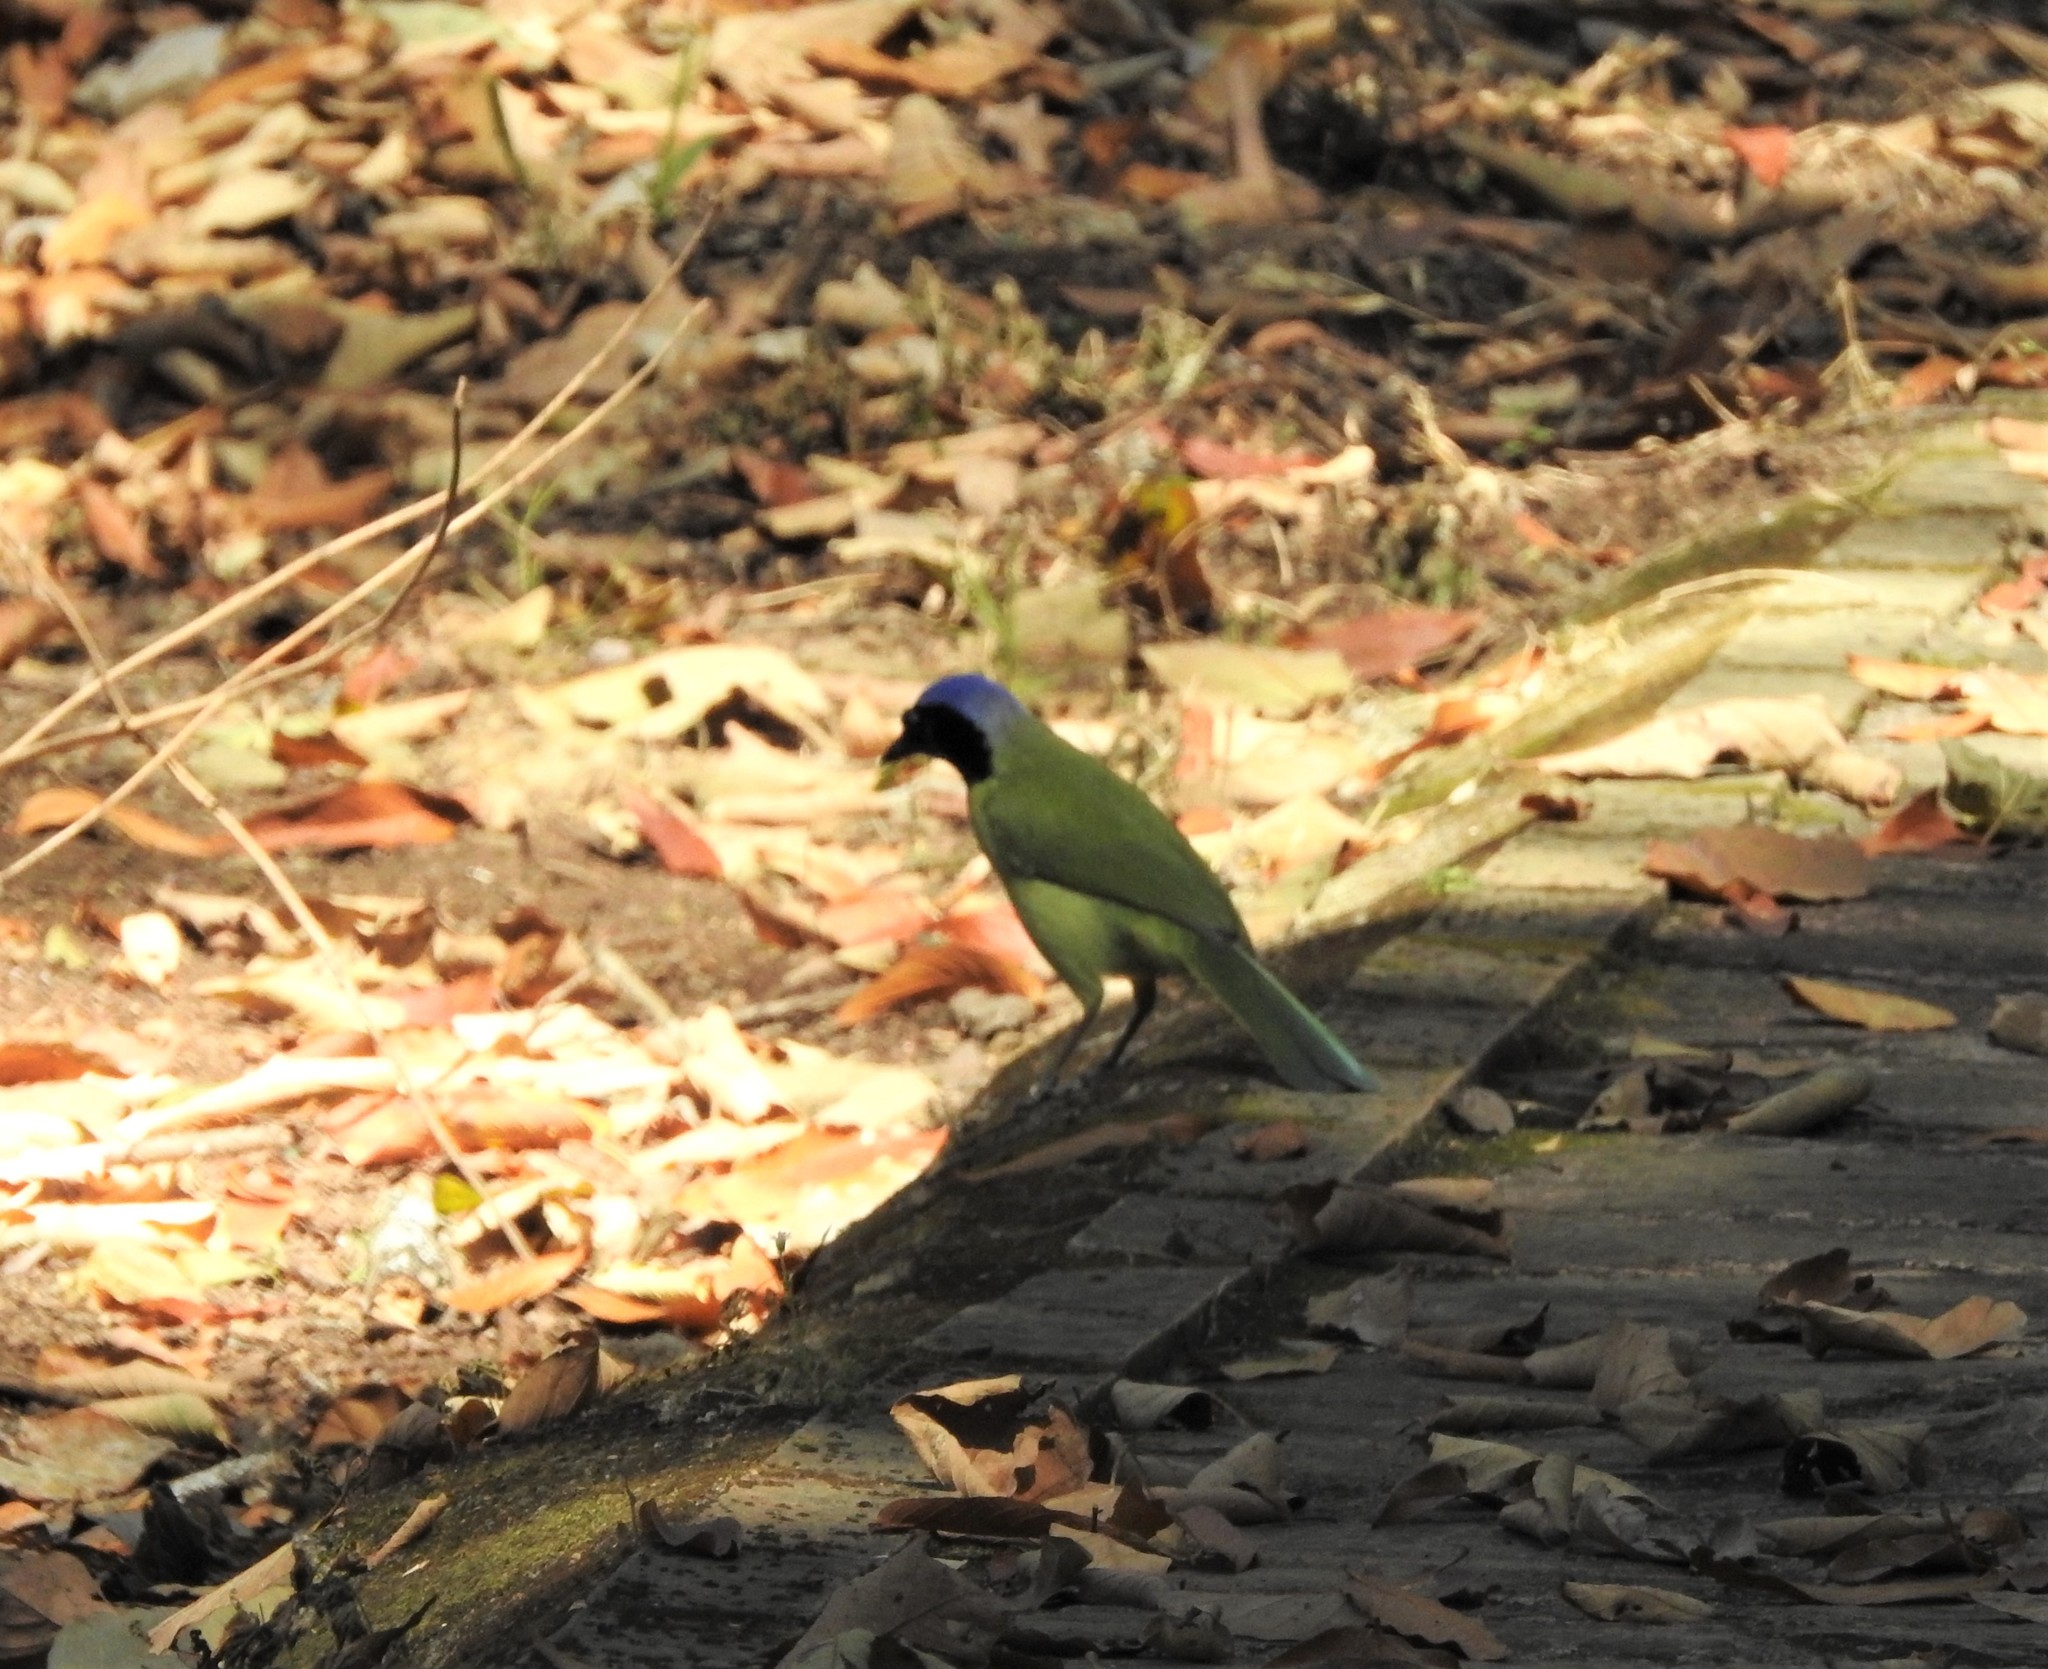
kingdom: Animalia
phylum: Chordata
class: Aves
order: Passeriformes
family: Corvidae
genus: Cyanocorax
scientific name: Cyanocorax yncas
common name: Green jay
